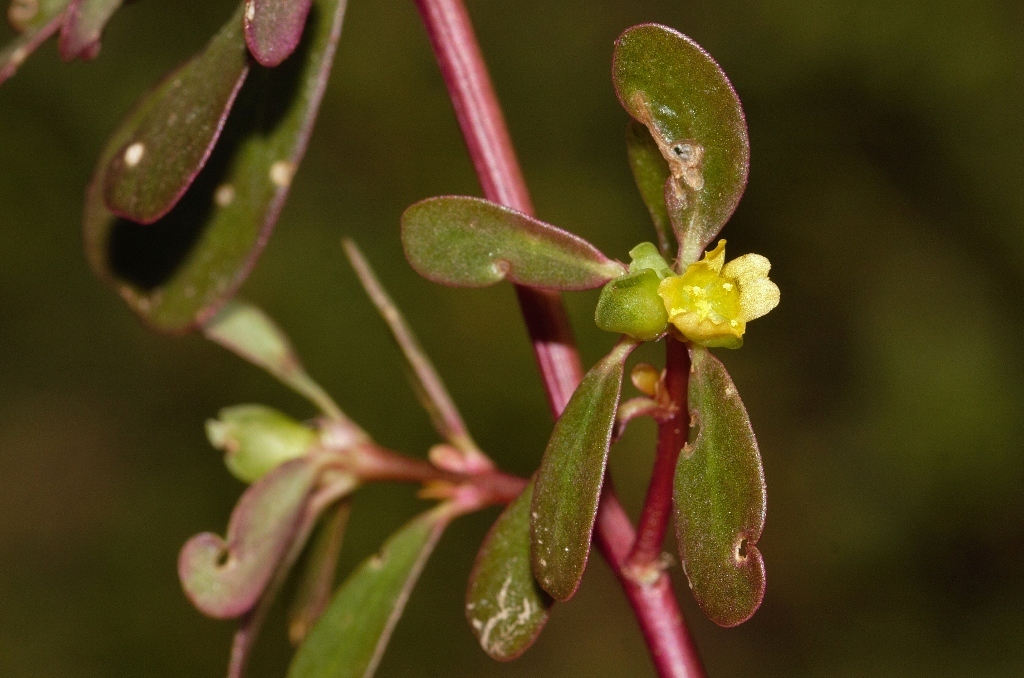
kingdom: Plantae
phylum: Tracheophyta
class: Magnoliopsida
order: Caryophyllales
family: Portulacaceae
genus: Portulaca
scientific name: Portulaca oleracea
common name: Common purslane
